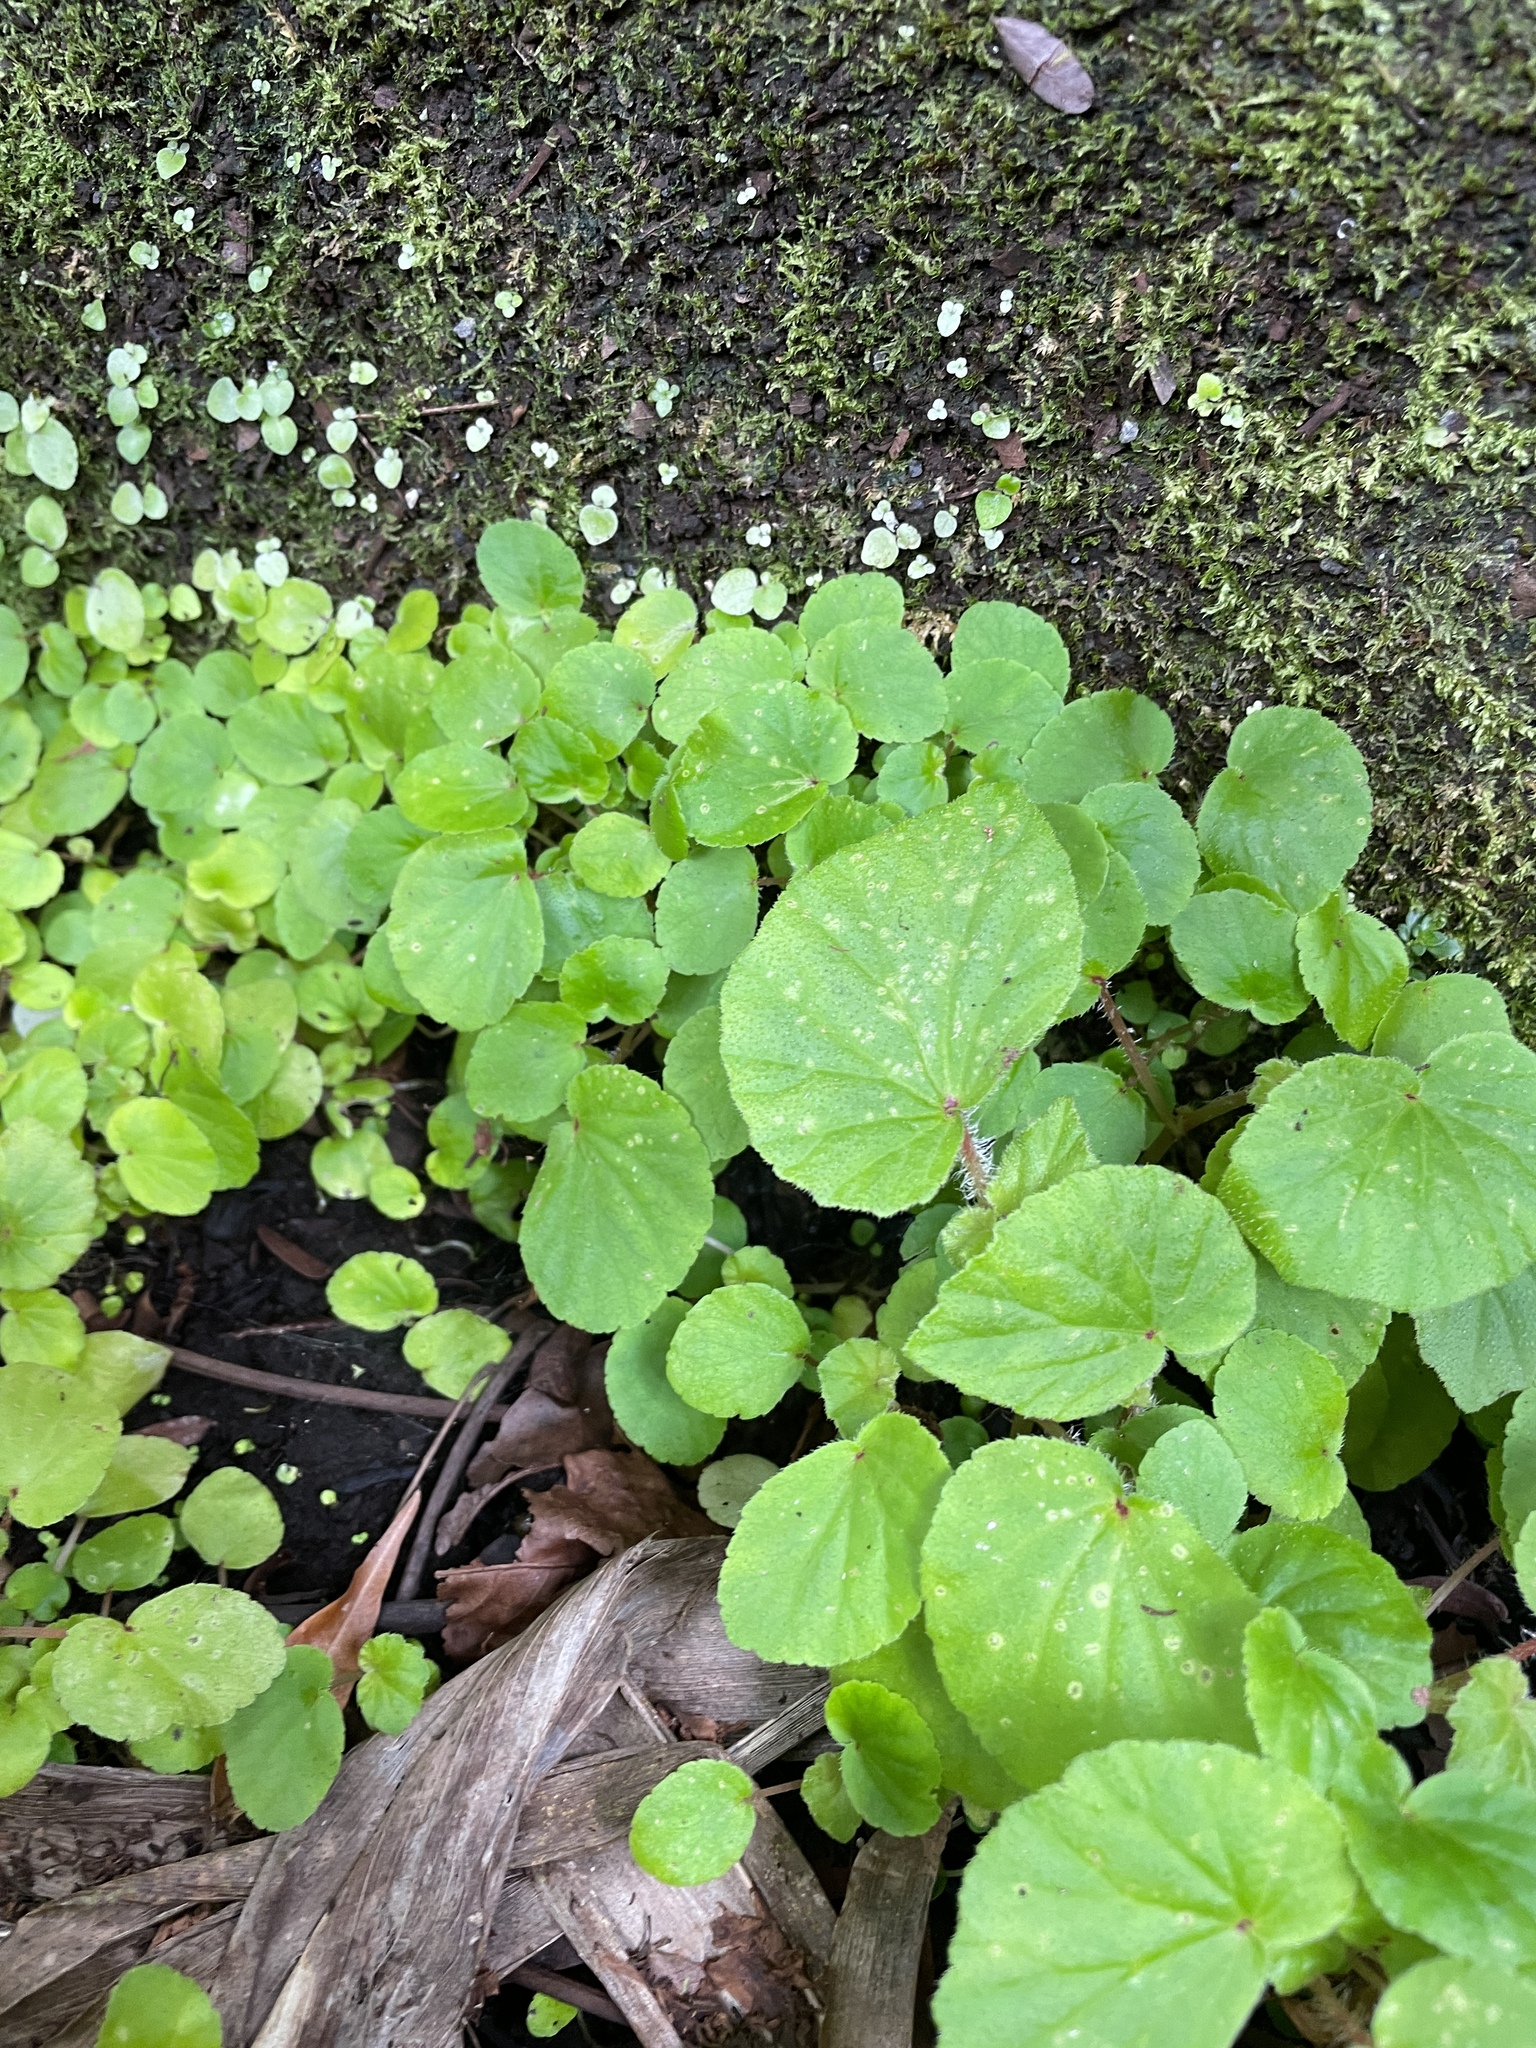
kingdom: Plantae
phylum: Tracheophyta
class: Magnoliopsida
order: Cucurbitales
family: Begoniaceae
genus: Begonia
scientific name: Begonia hirtella
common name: Brazilian begonia
